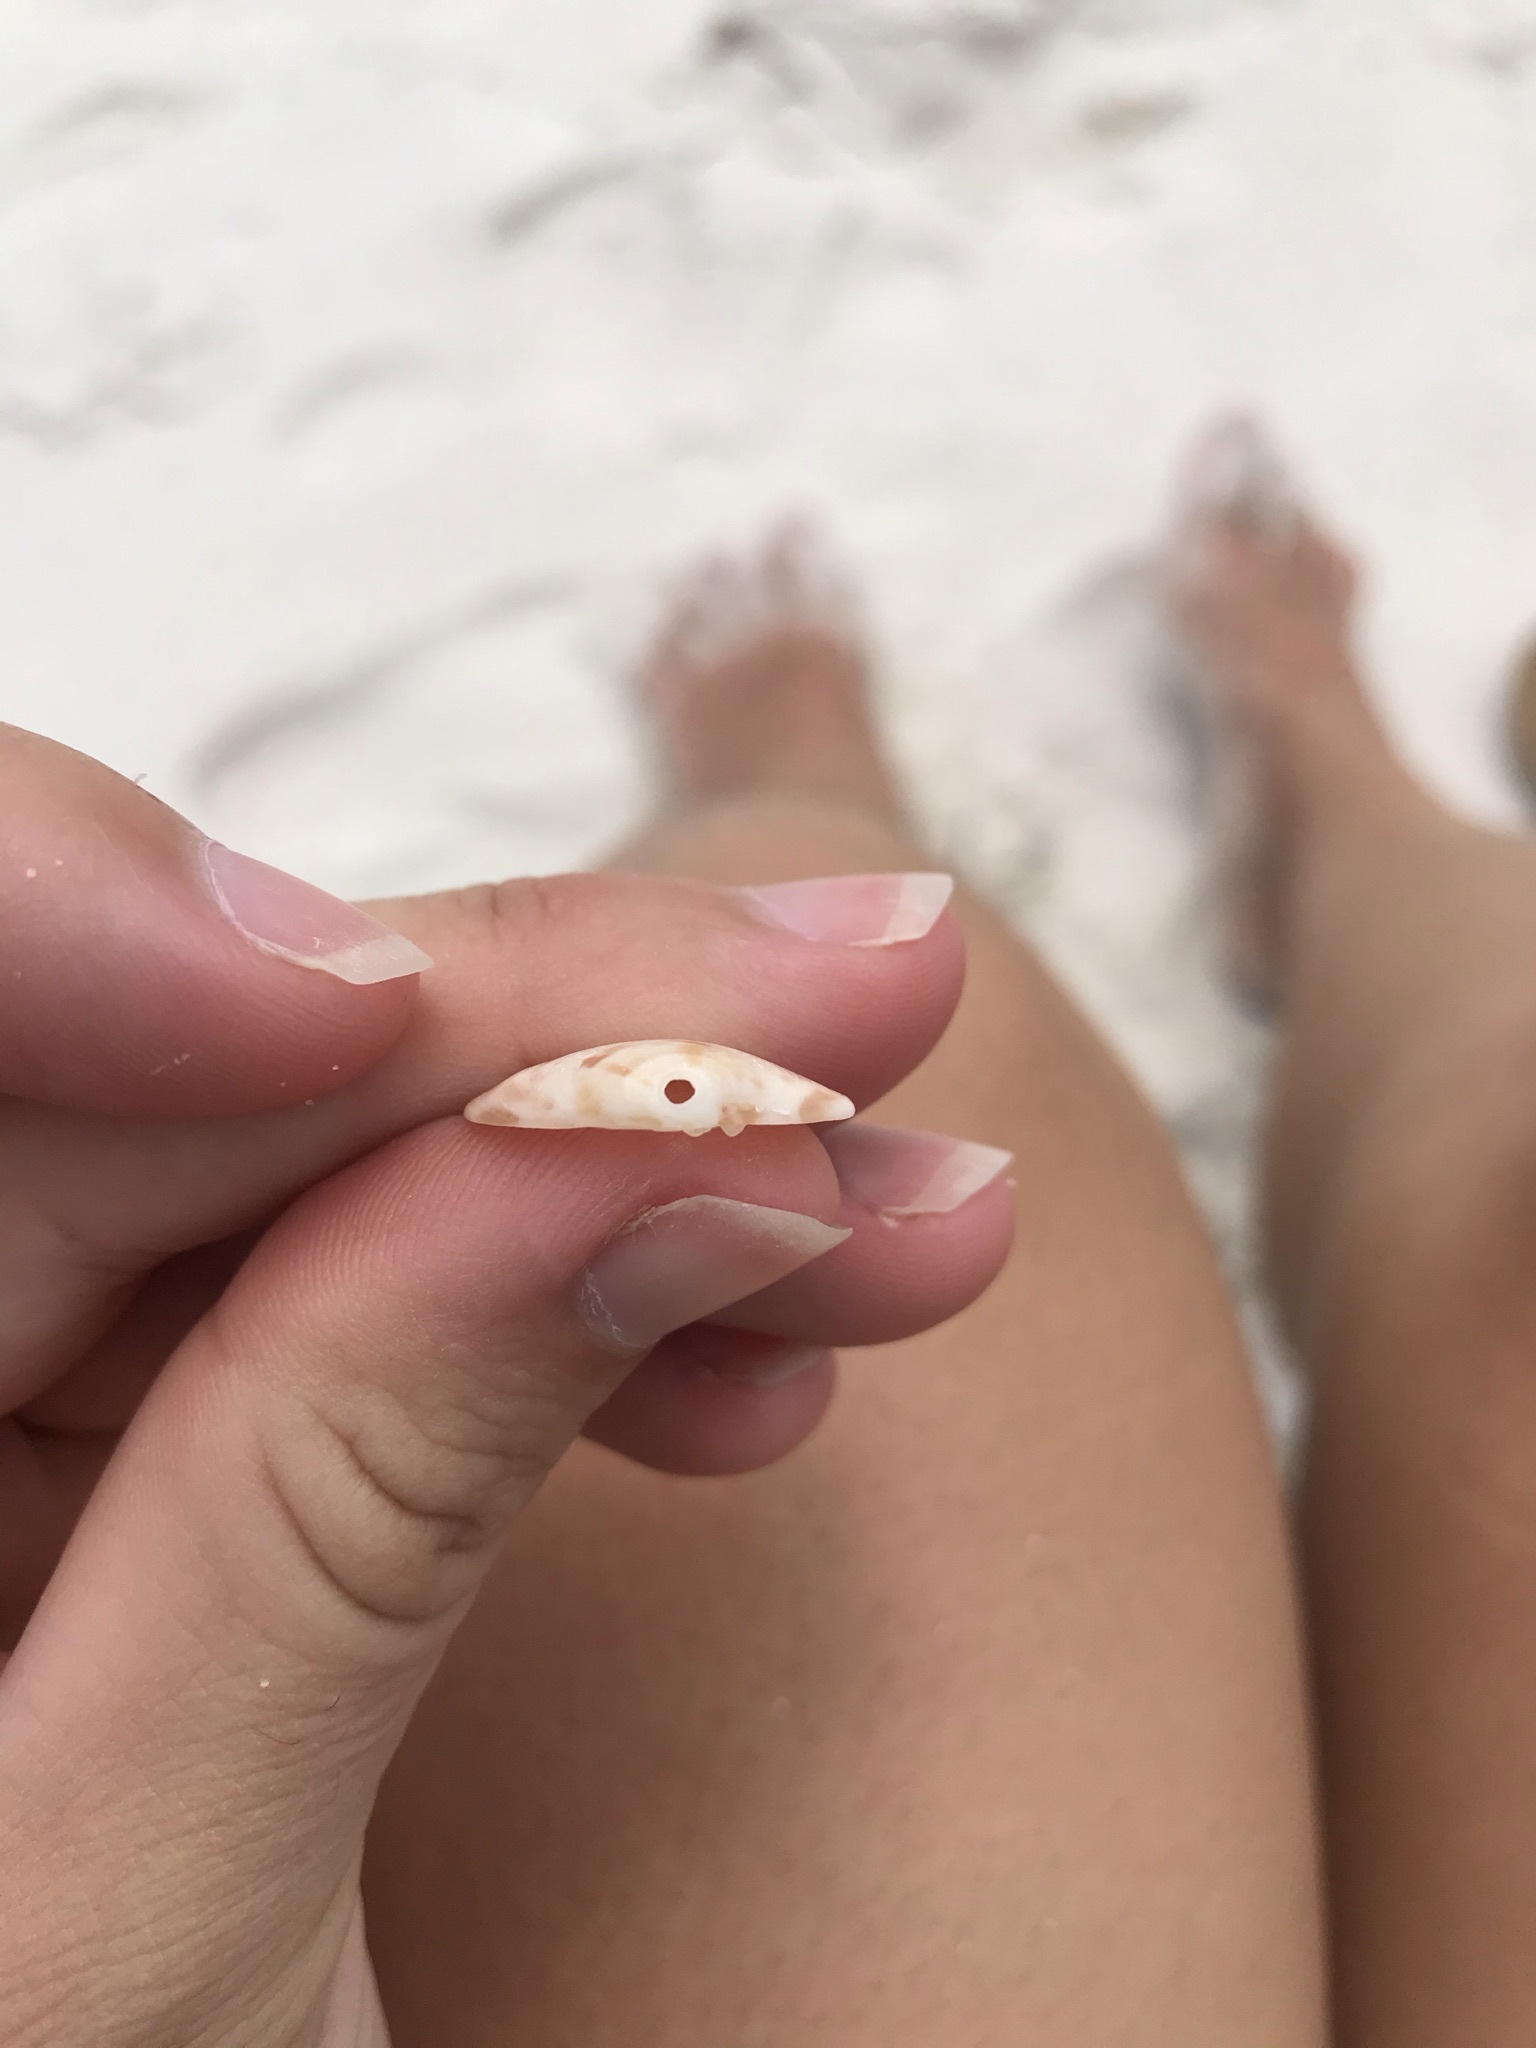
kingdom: Animalia
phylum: Mollusca
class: Bivalvia
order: Venerida
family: Veneridae
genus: Megapitaria
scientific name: Megapitaria maculata
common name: Calico clam
